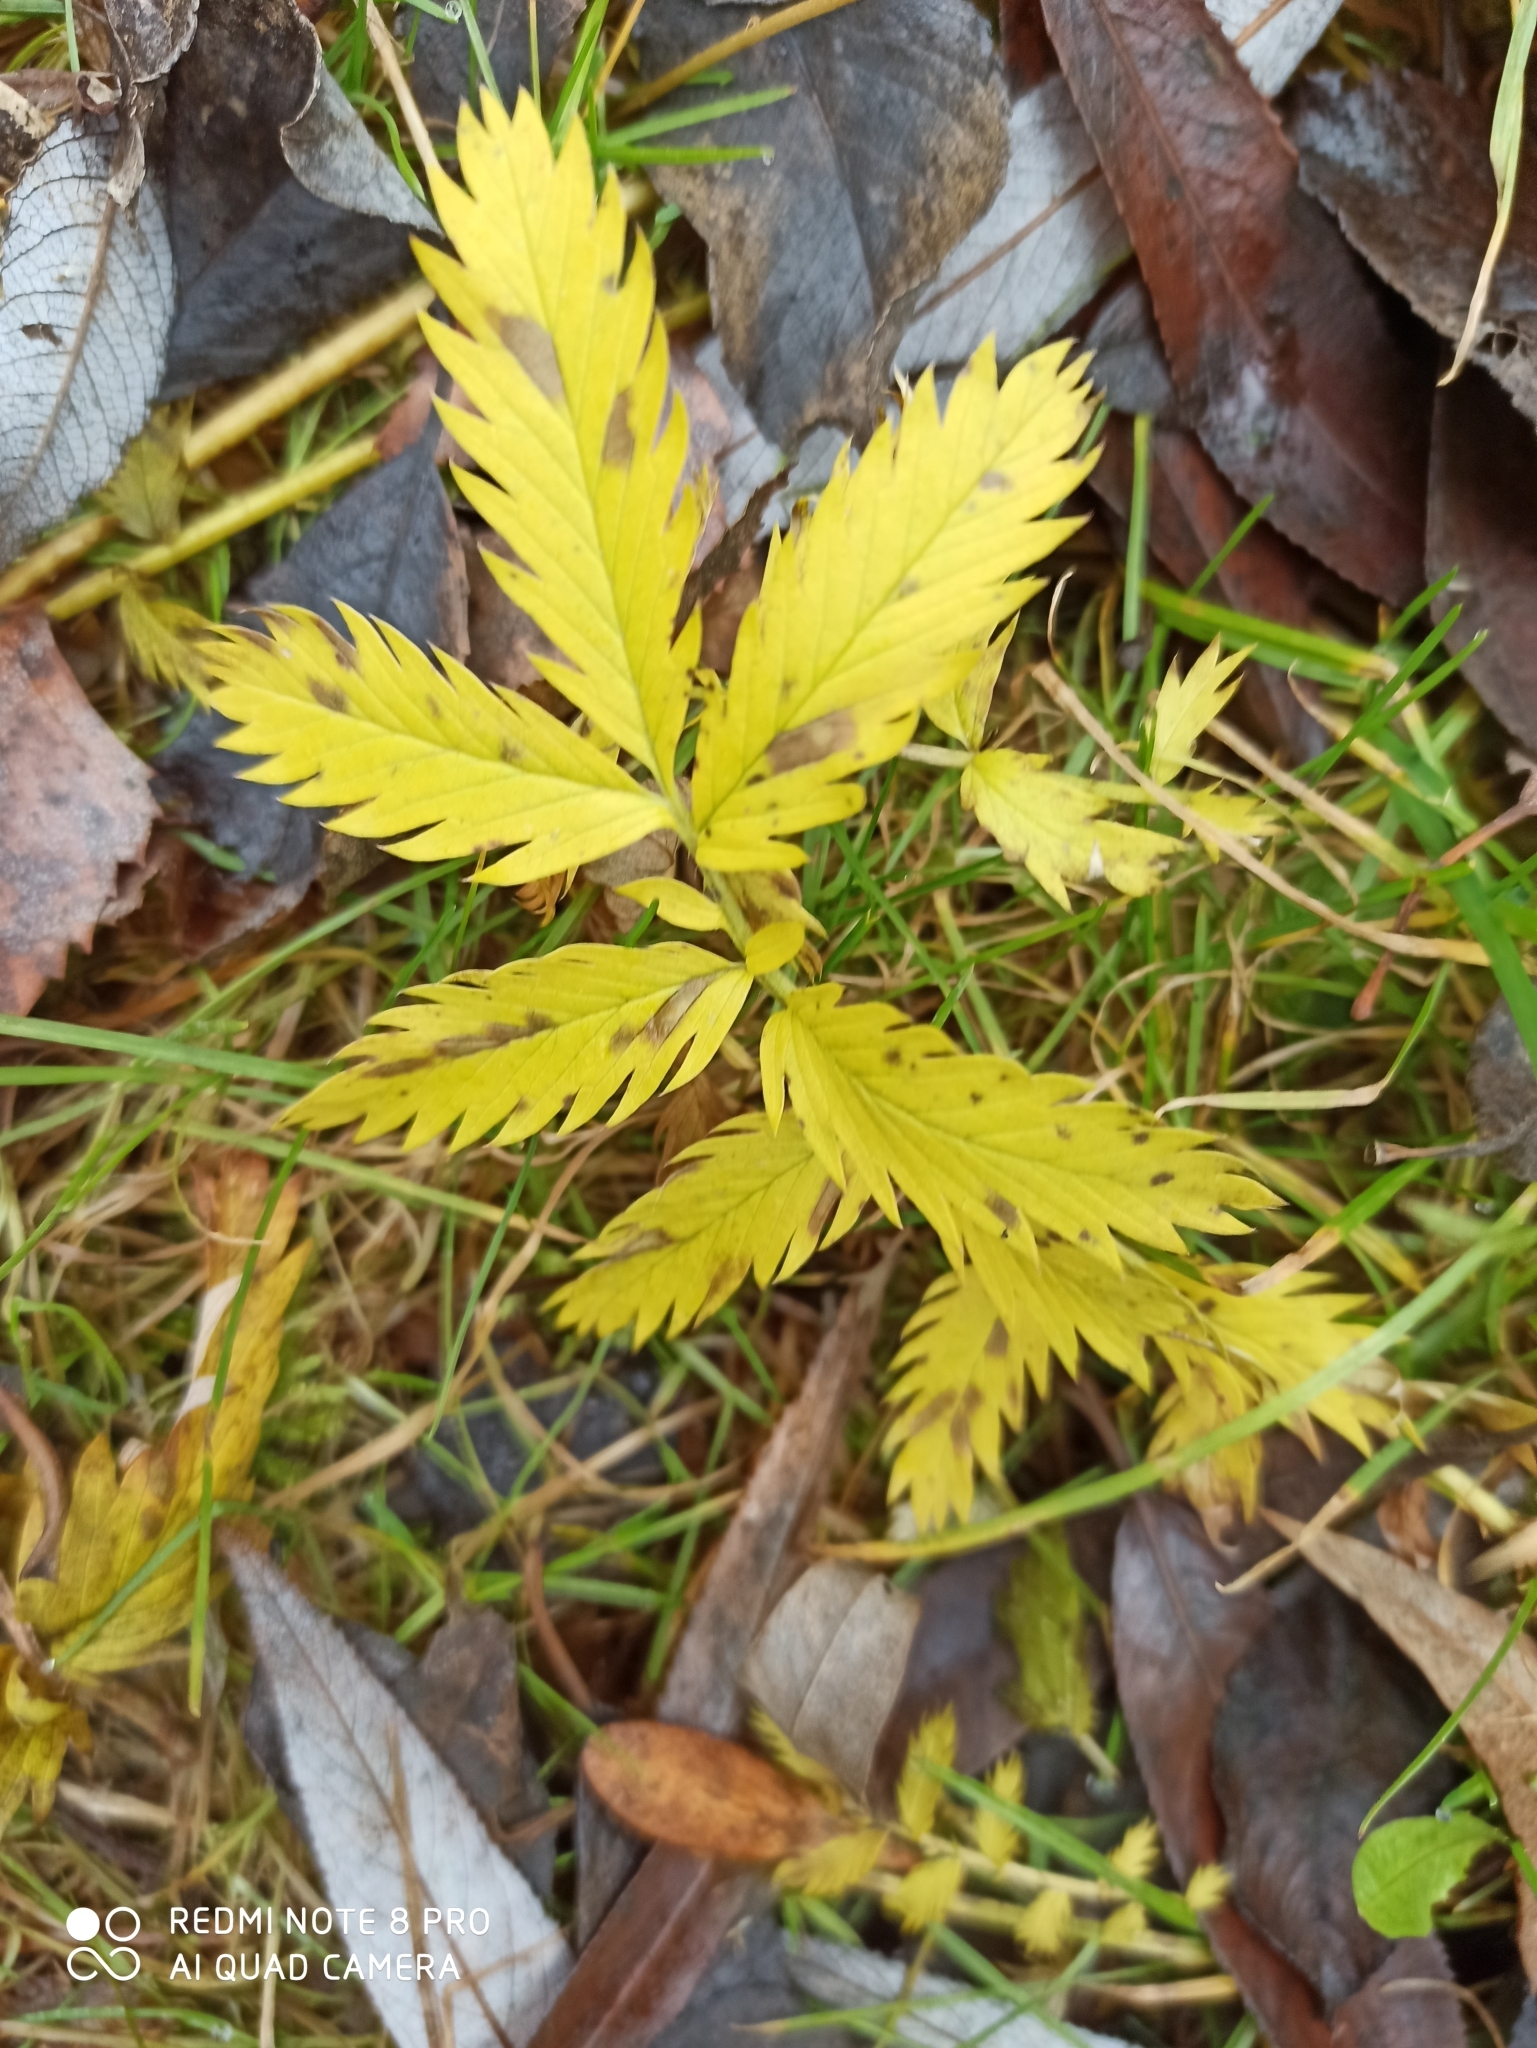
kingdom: Plantae
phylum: Tracheophyta
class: Magnoliopsida
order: Rosales
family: Rosaceae
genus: Argentina
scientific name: Argentina anserina
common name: Common silverweed
